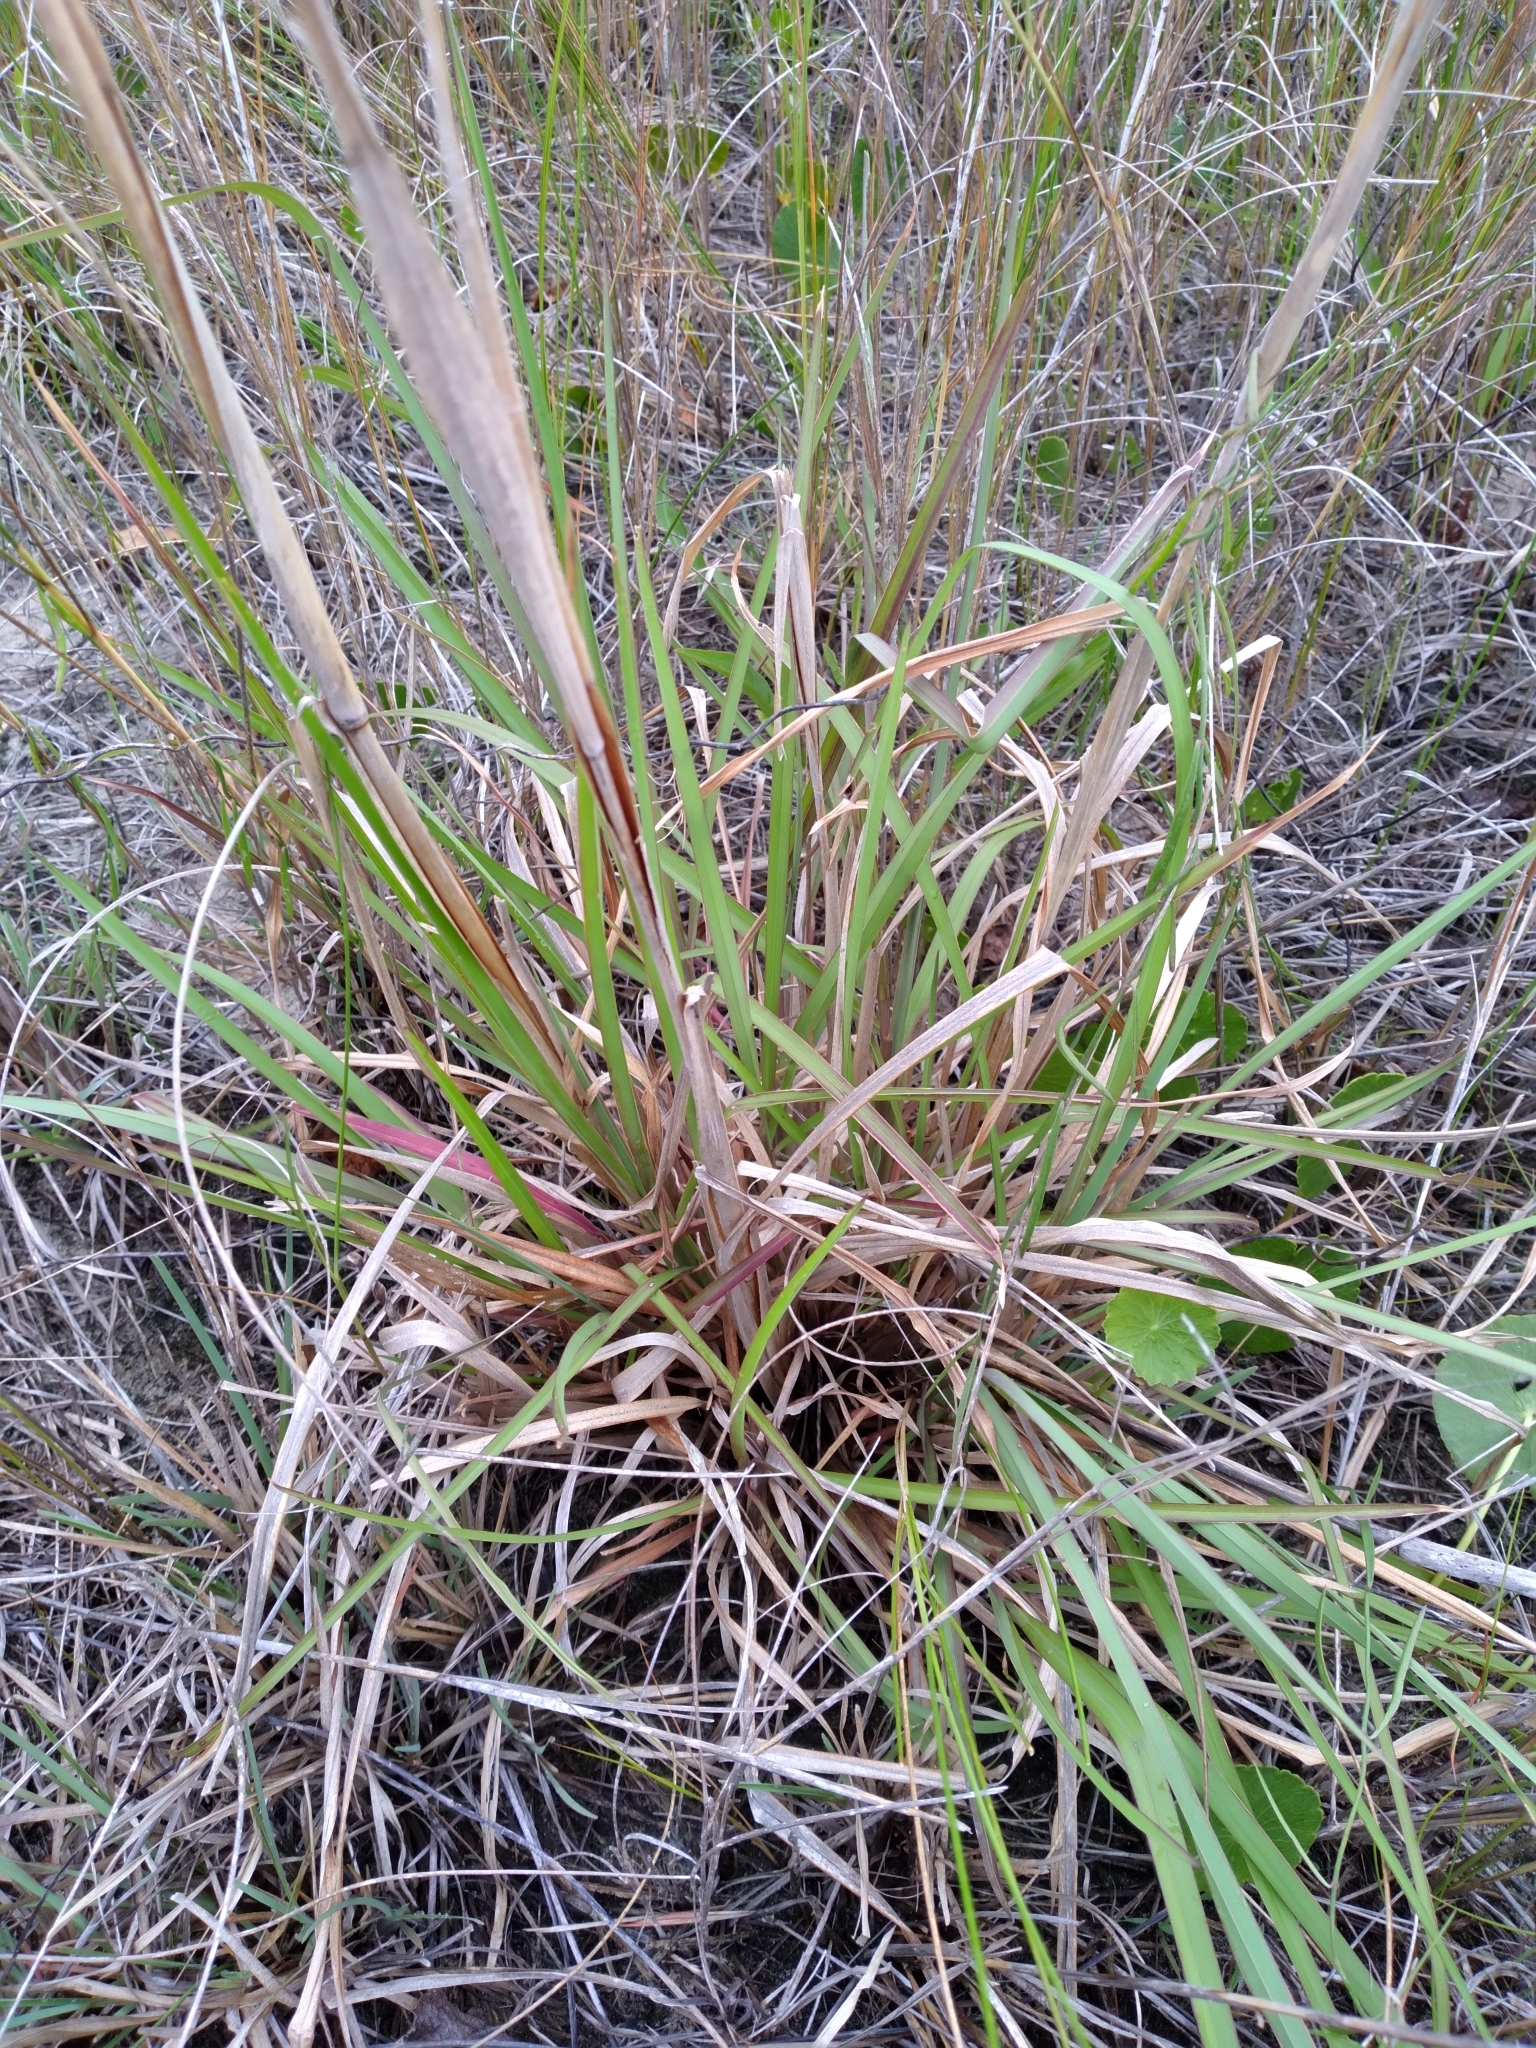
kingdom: Plantae
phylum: Tracheophyta
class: Liliopsida
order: Poales
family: Poaceae
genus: Andropogon
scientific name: Andropogon tenuispatheus
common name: Bushy bluestem
